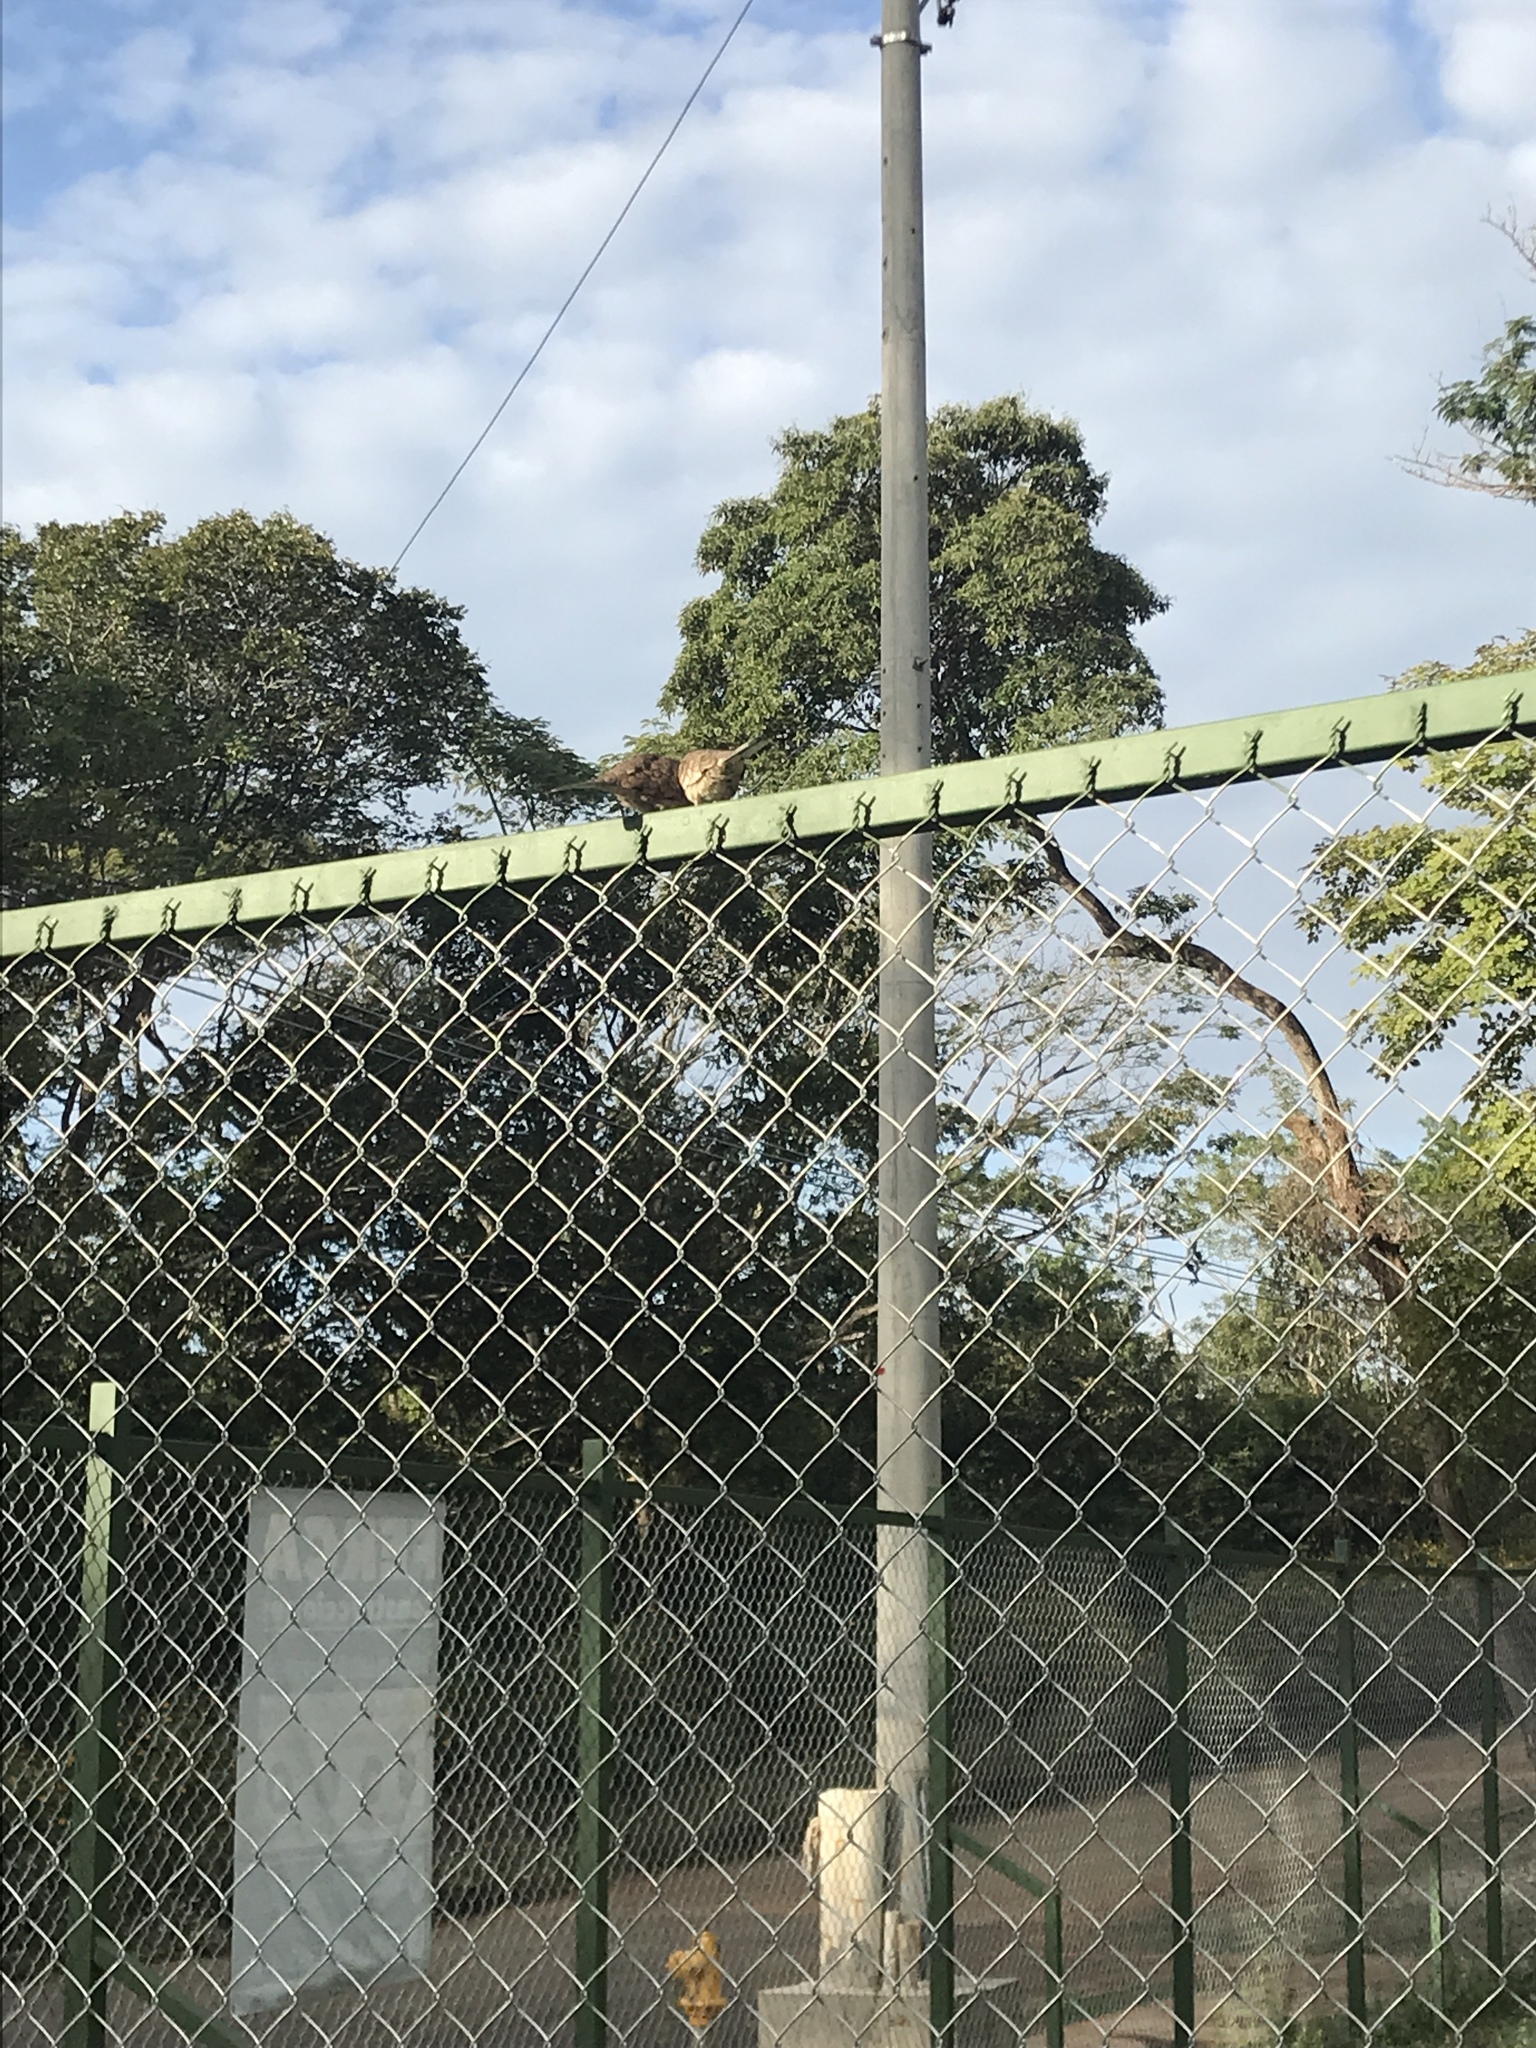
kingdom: Animalia
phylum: Chordata
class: Aves
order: Columbiformes
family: Columbidae
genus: Columbina
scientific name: Columbina inca
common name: Inca dove
